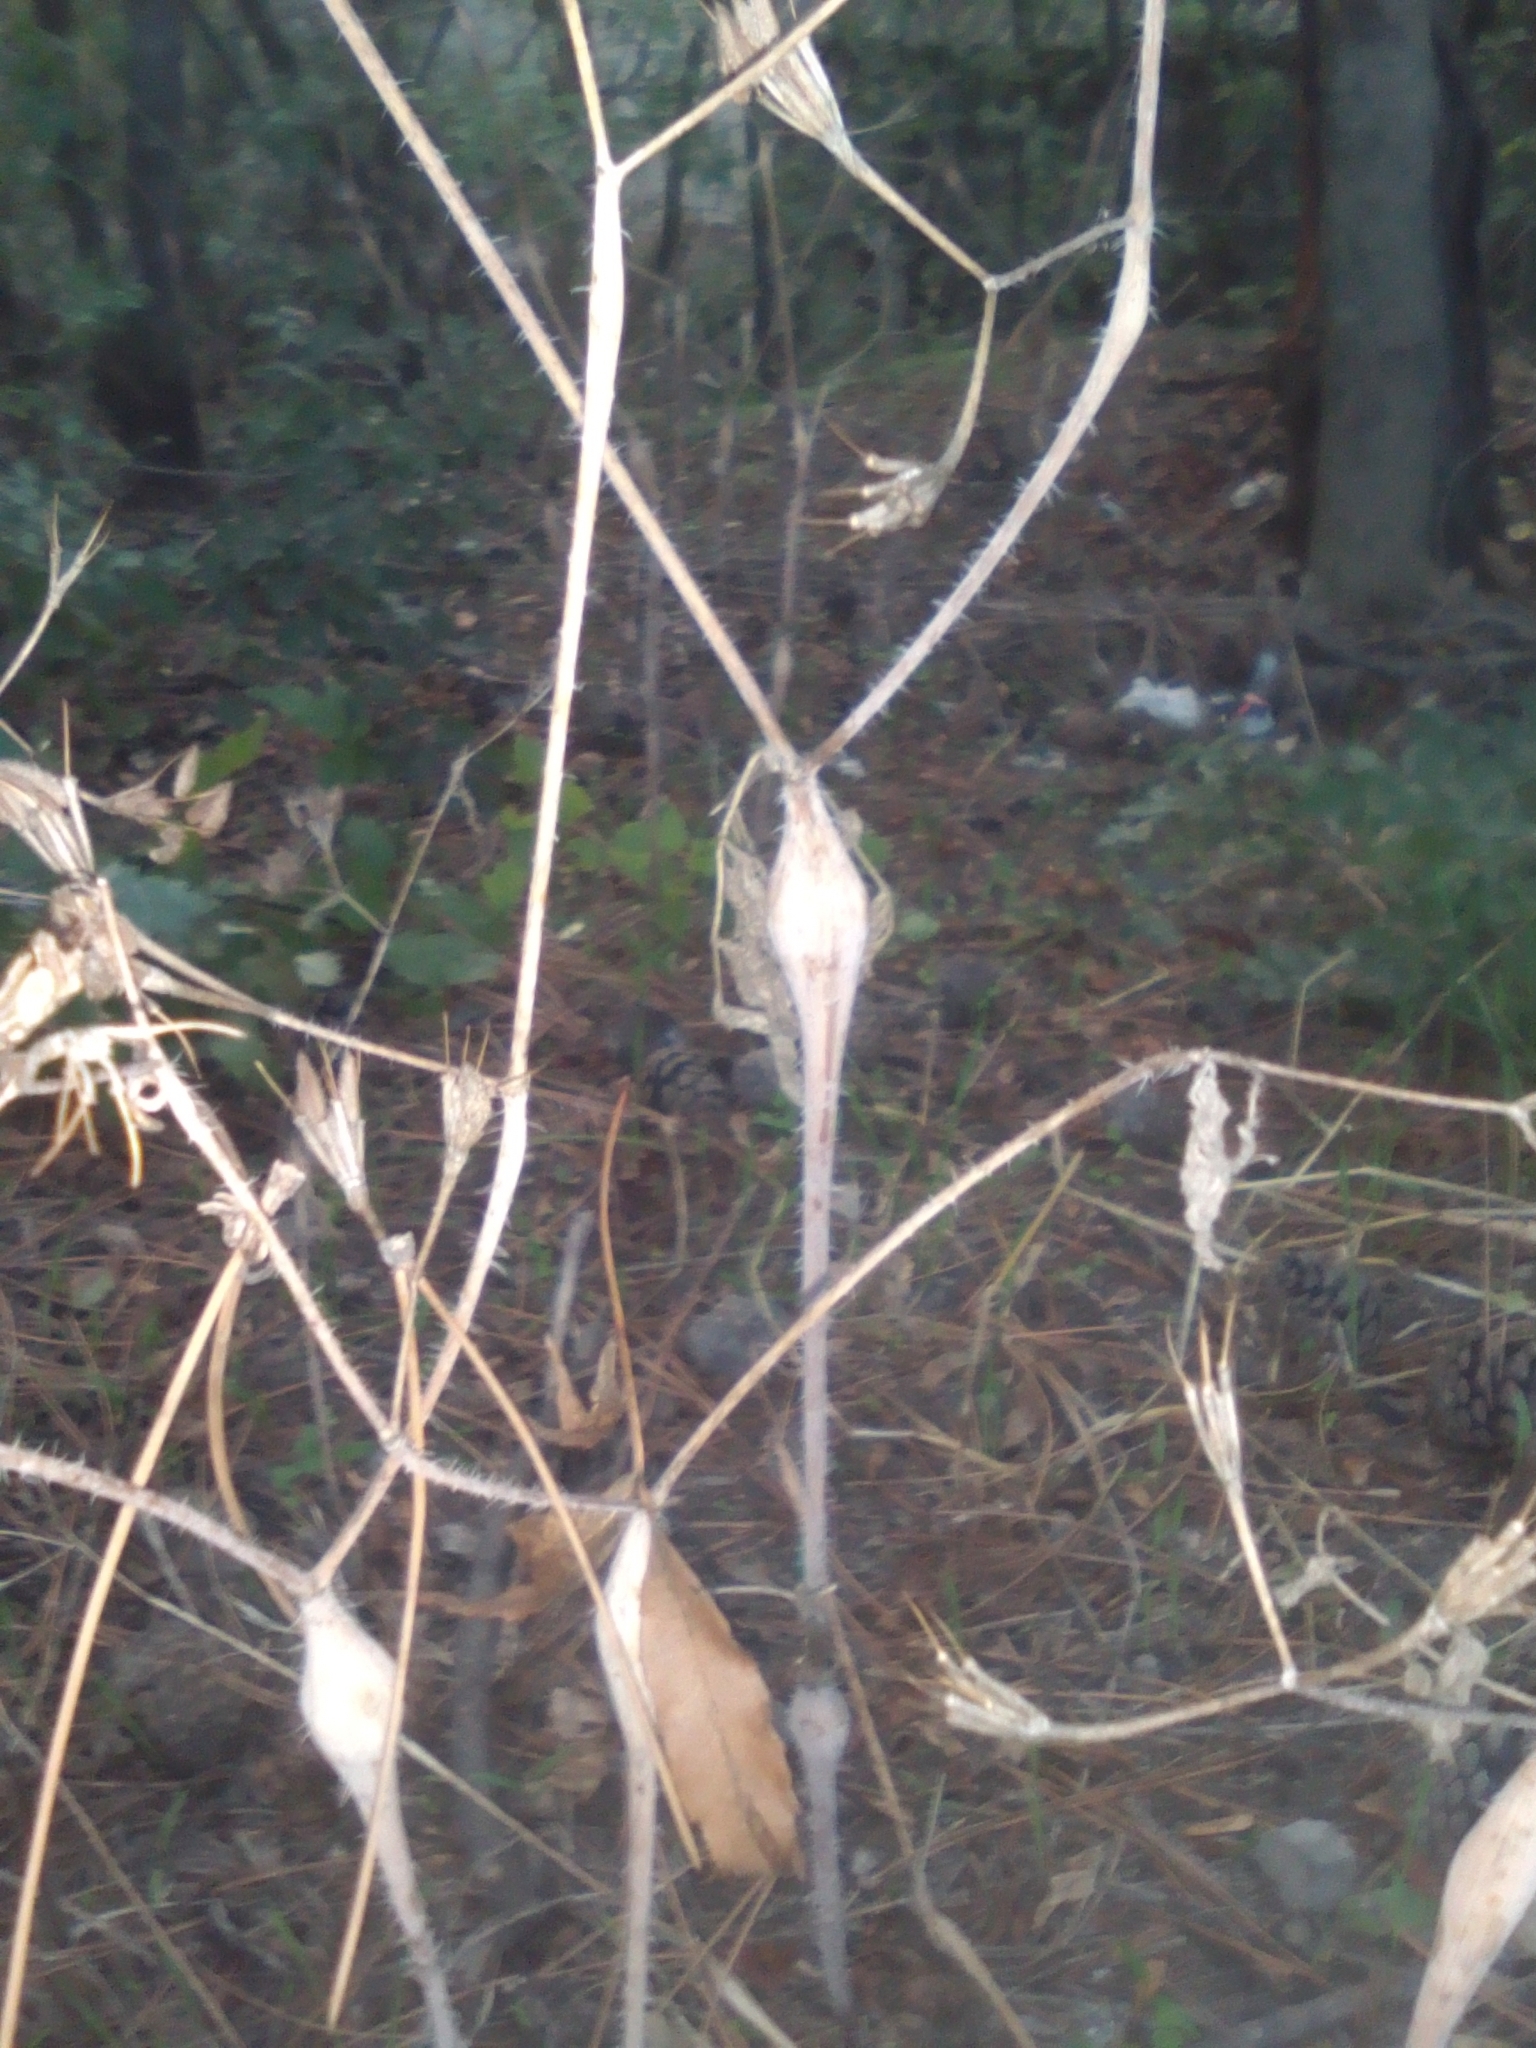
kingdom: Plantae
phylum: Tracheophyta
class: Magnoliopsida
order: Apiales
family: Apiaceae
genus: Chaerophyllum
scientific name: Chaerophyllum nodosum
